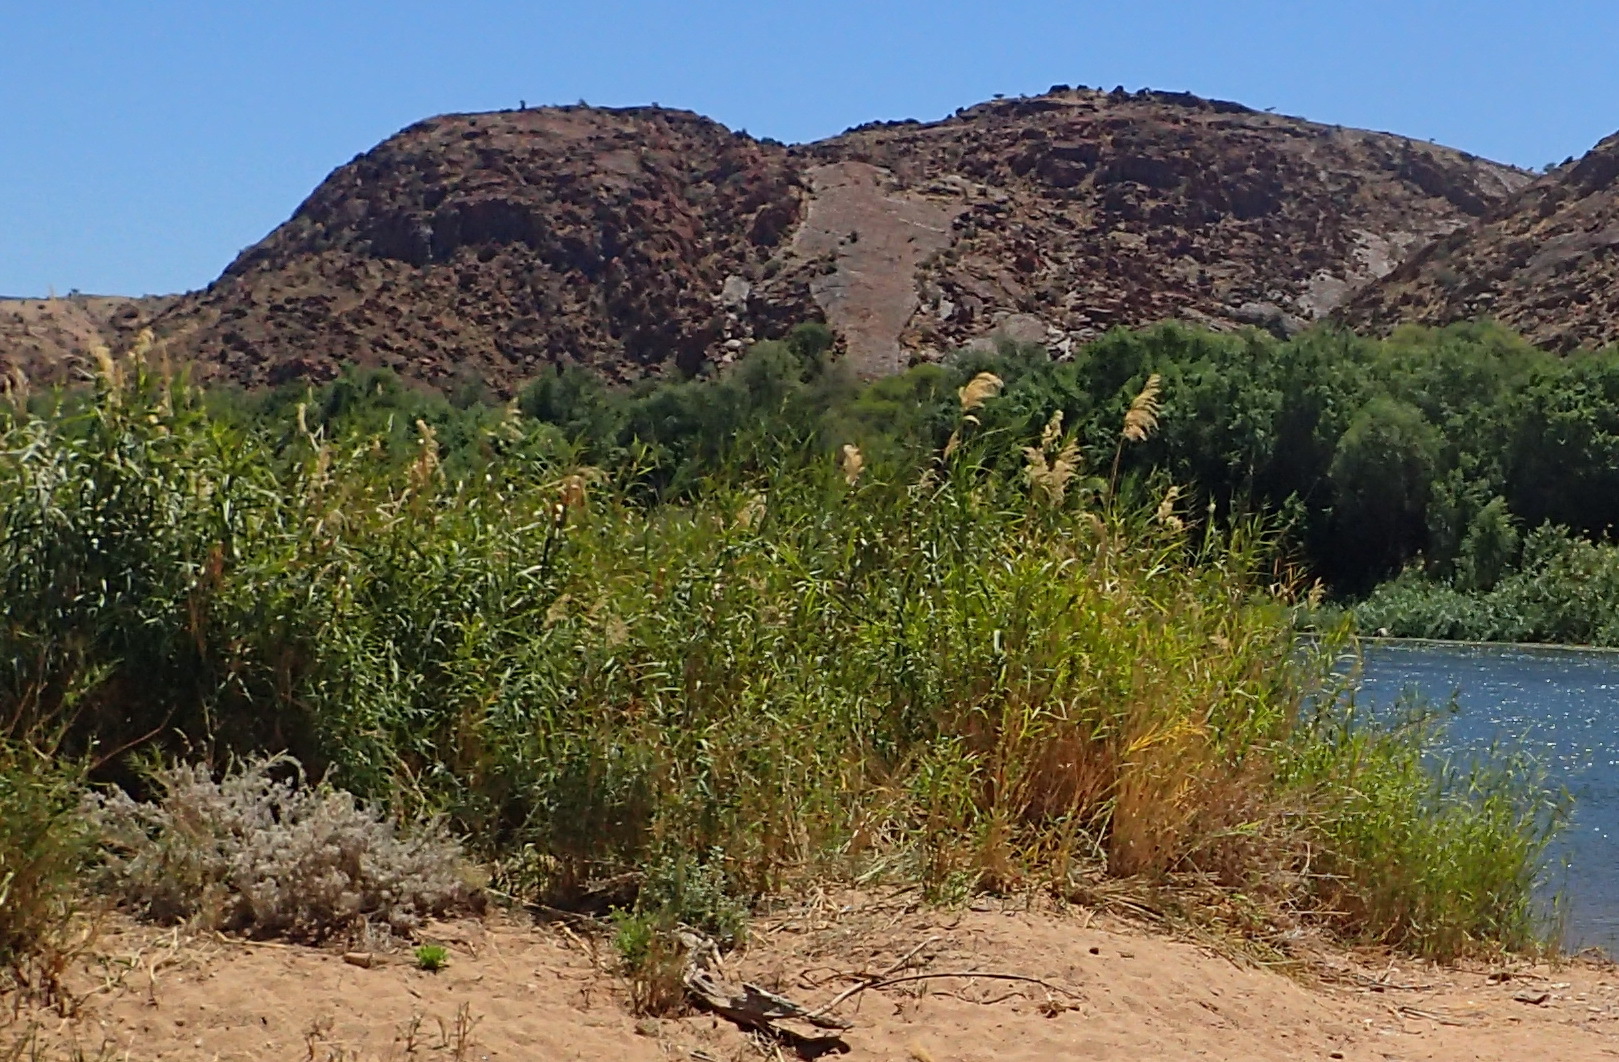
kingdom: Plantae
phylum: Tracheophyta
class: Liliopsida
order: Poales
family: Poaceae
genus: Phragmites
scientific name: Phragmites australis
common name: Common reed
